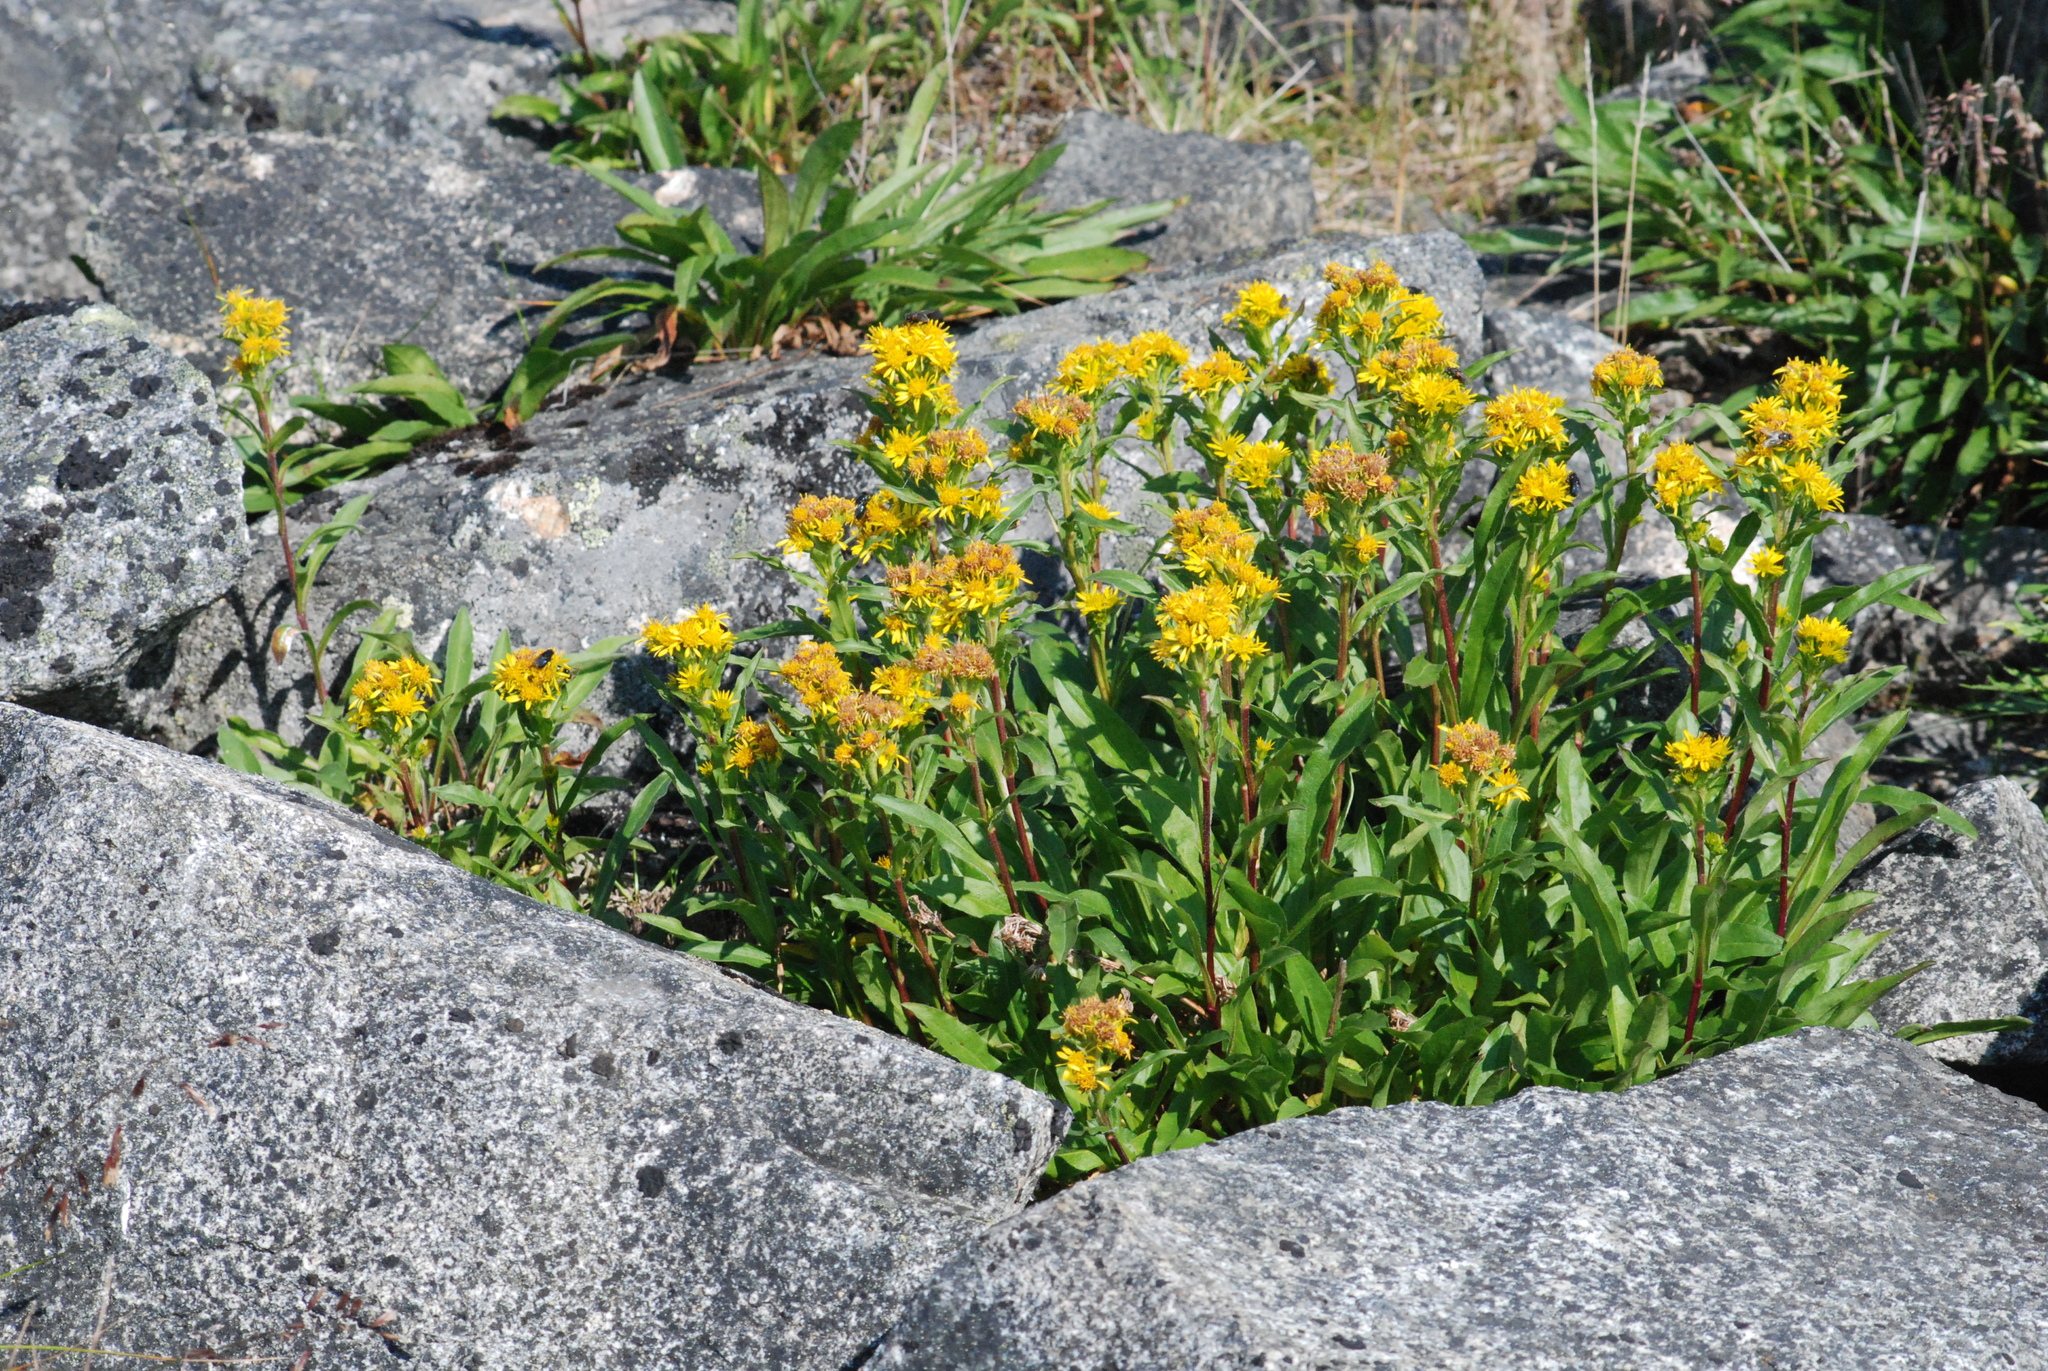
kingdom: Plantae
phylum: Tracheophyta
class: Magnoliopsida
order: Asterales
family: Asteraceae
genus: Solidago
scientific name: Solidago compacta
